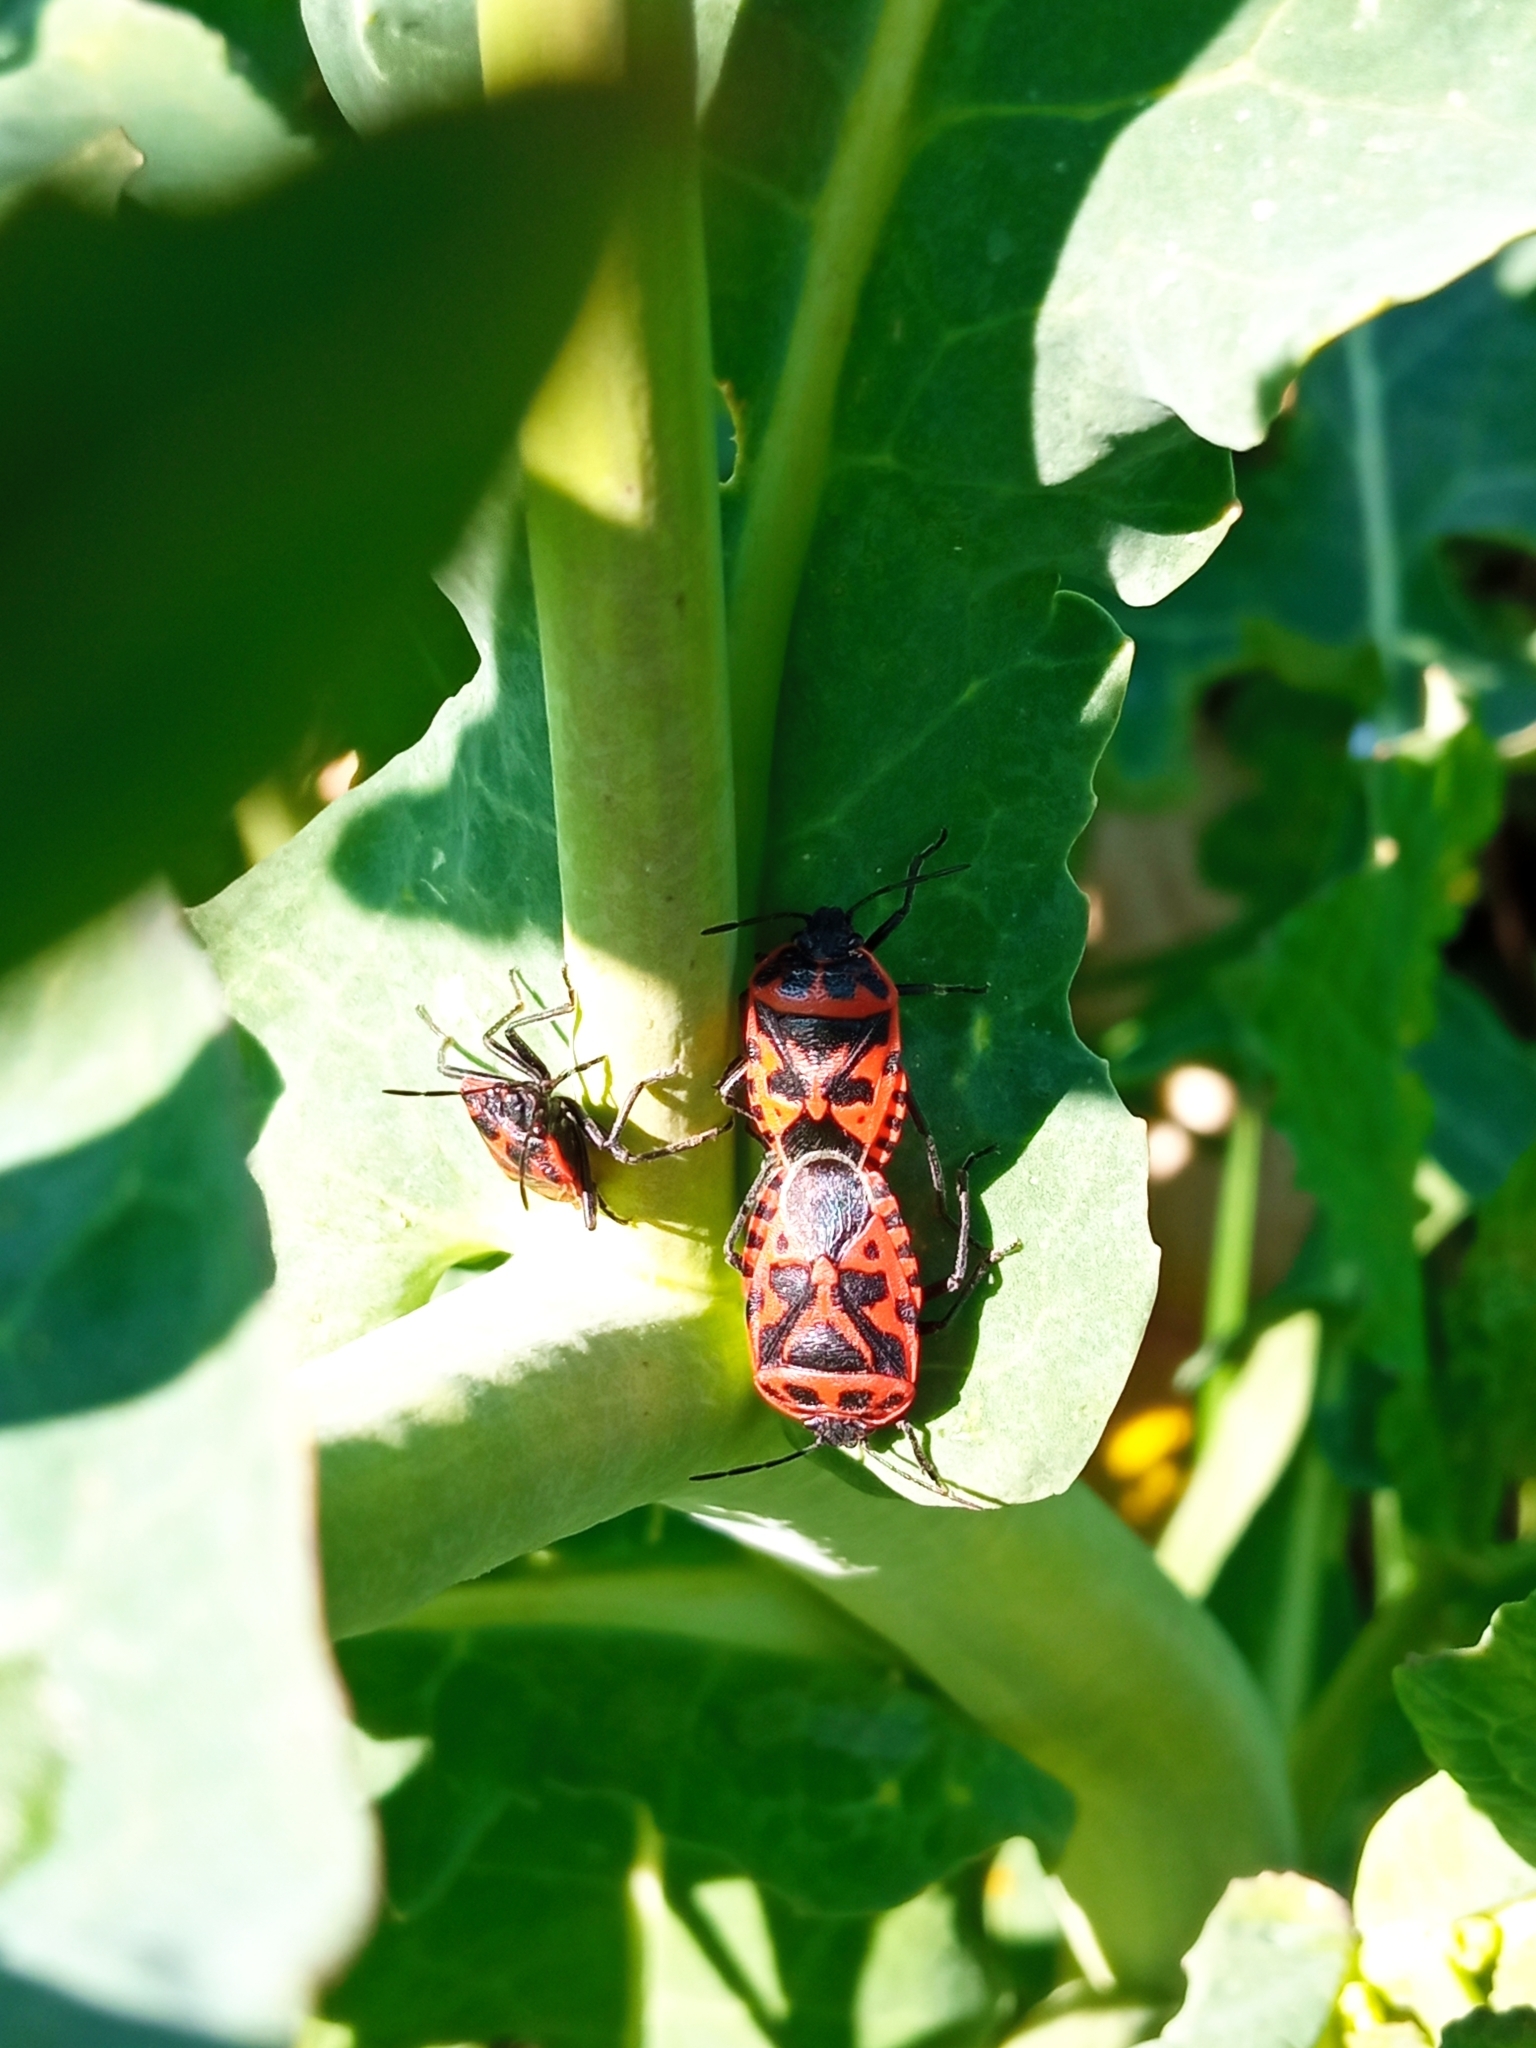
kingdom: Animalia
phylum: Arthropoda
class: Insecta
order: Hemiptera
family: Pentatomidae
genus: Eurydema
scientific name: Eurydema ventralis
